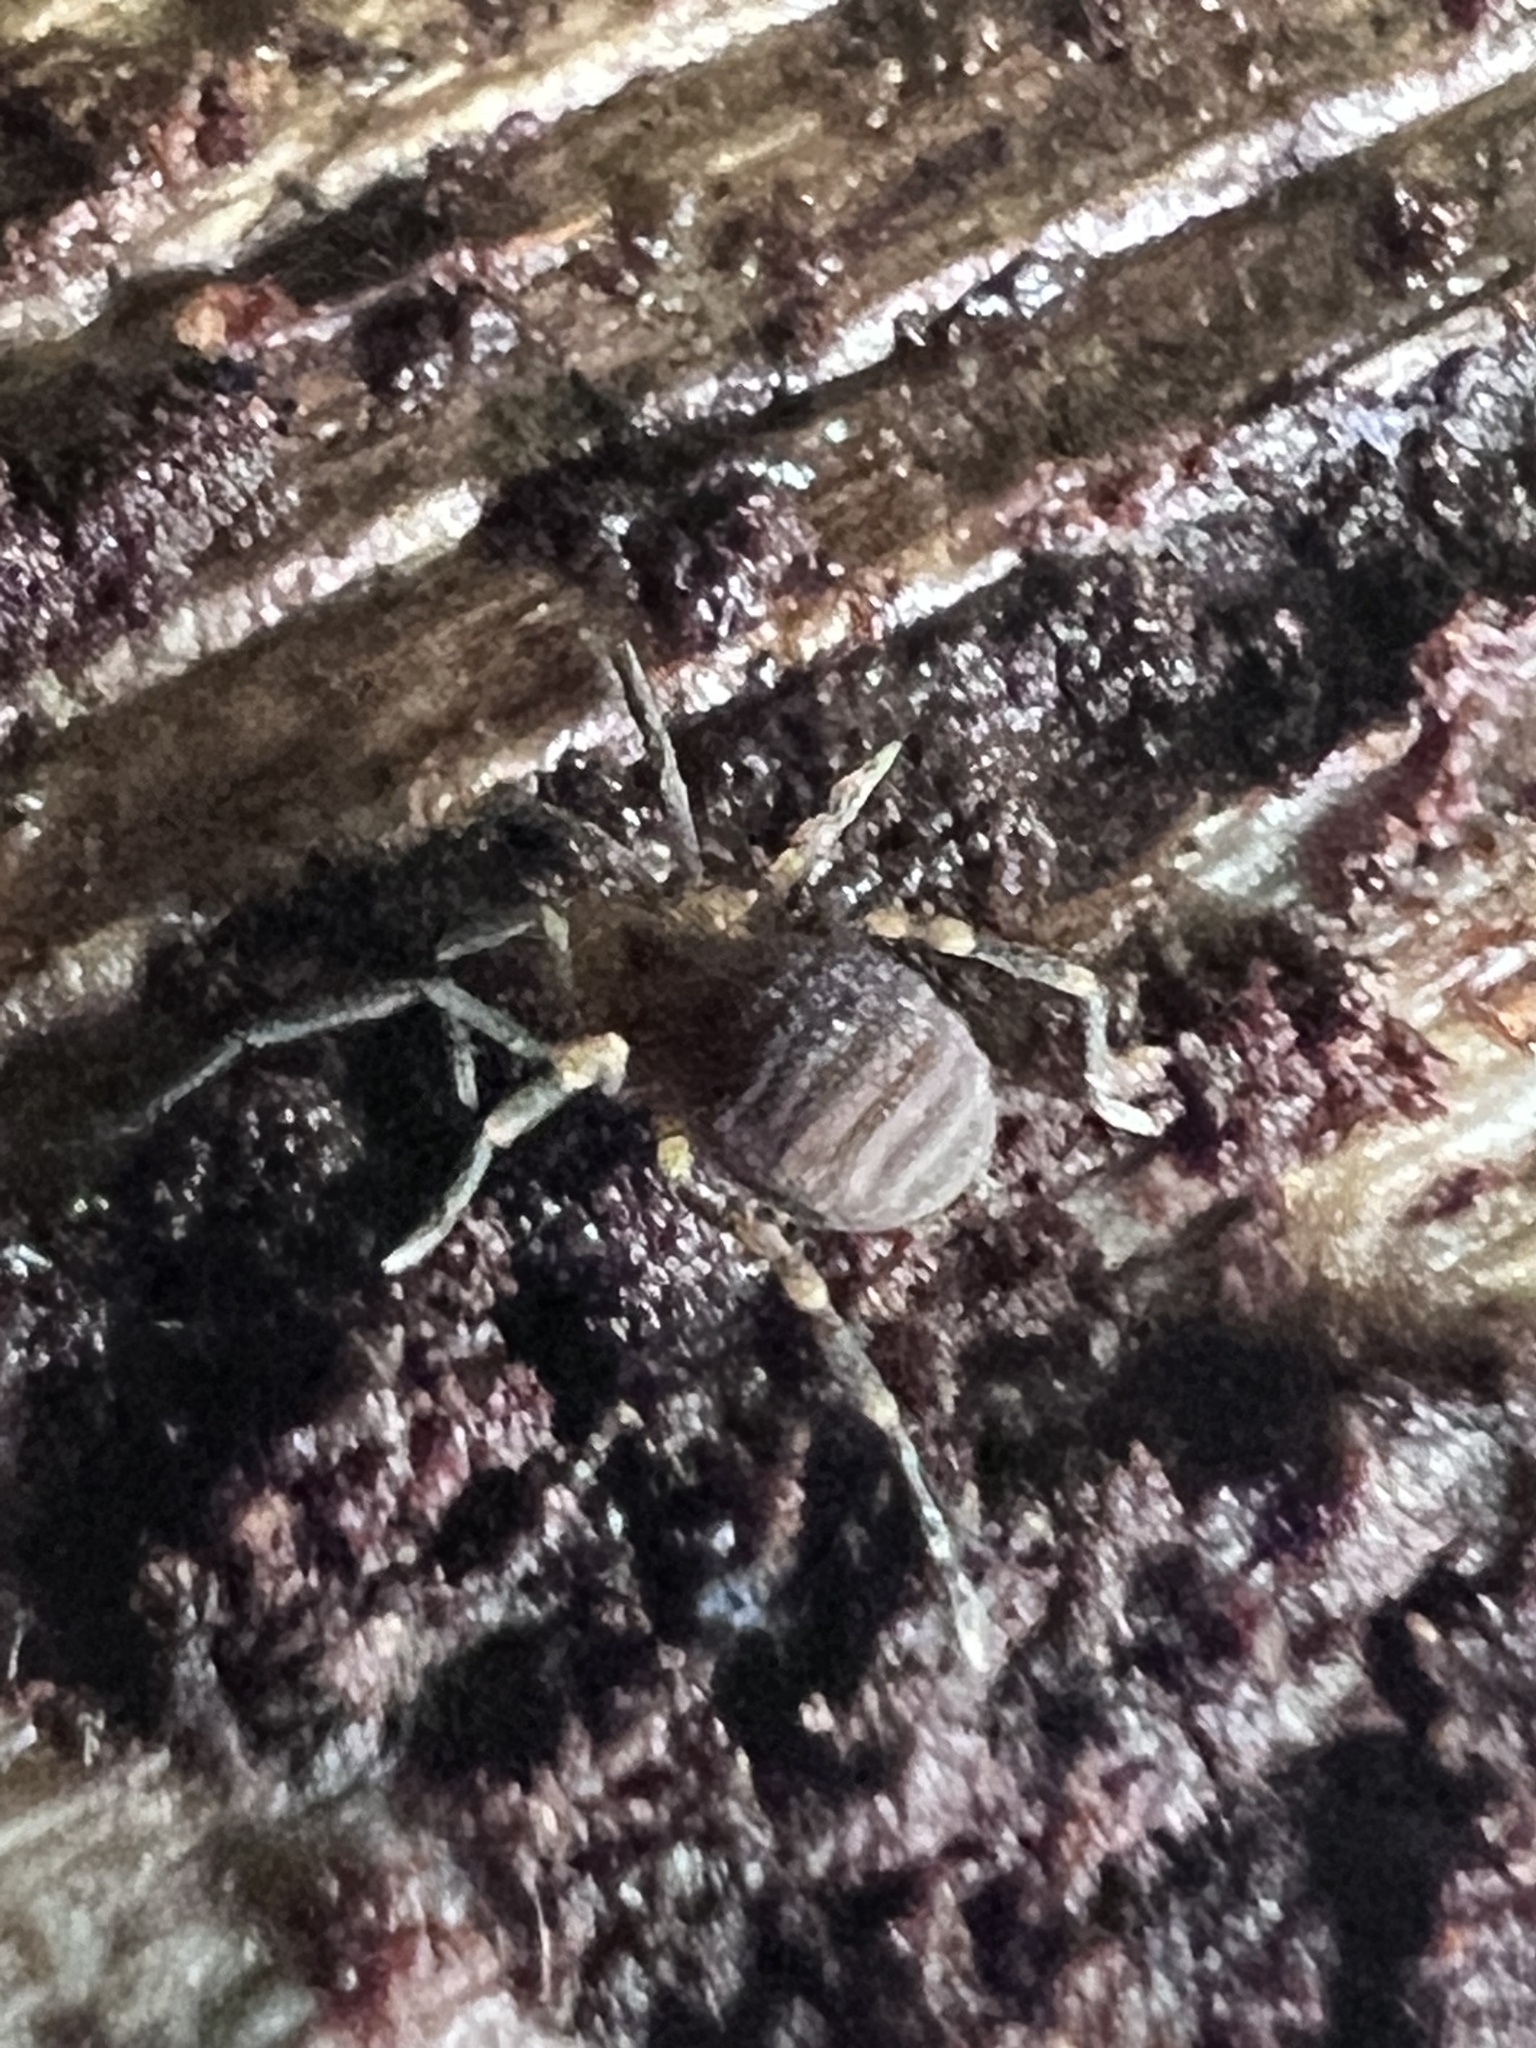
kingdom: Animalia
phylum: Arthropoda
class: Arachnida
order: Opiliones
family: Paranonychidae
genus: Paranonychus
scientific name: Paranonychus brunneus
